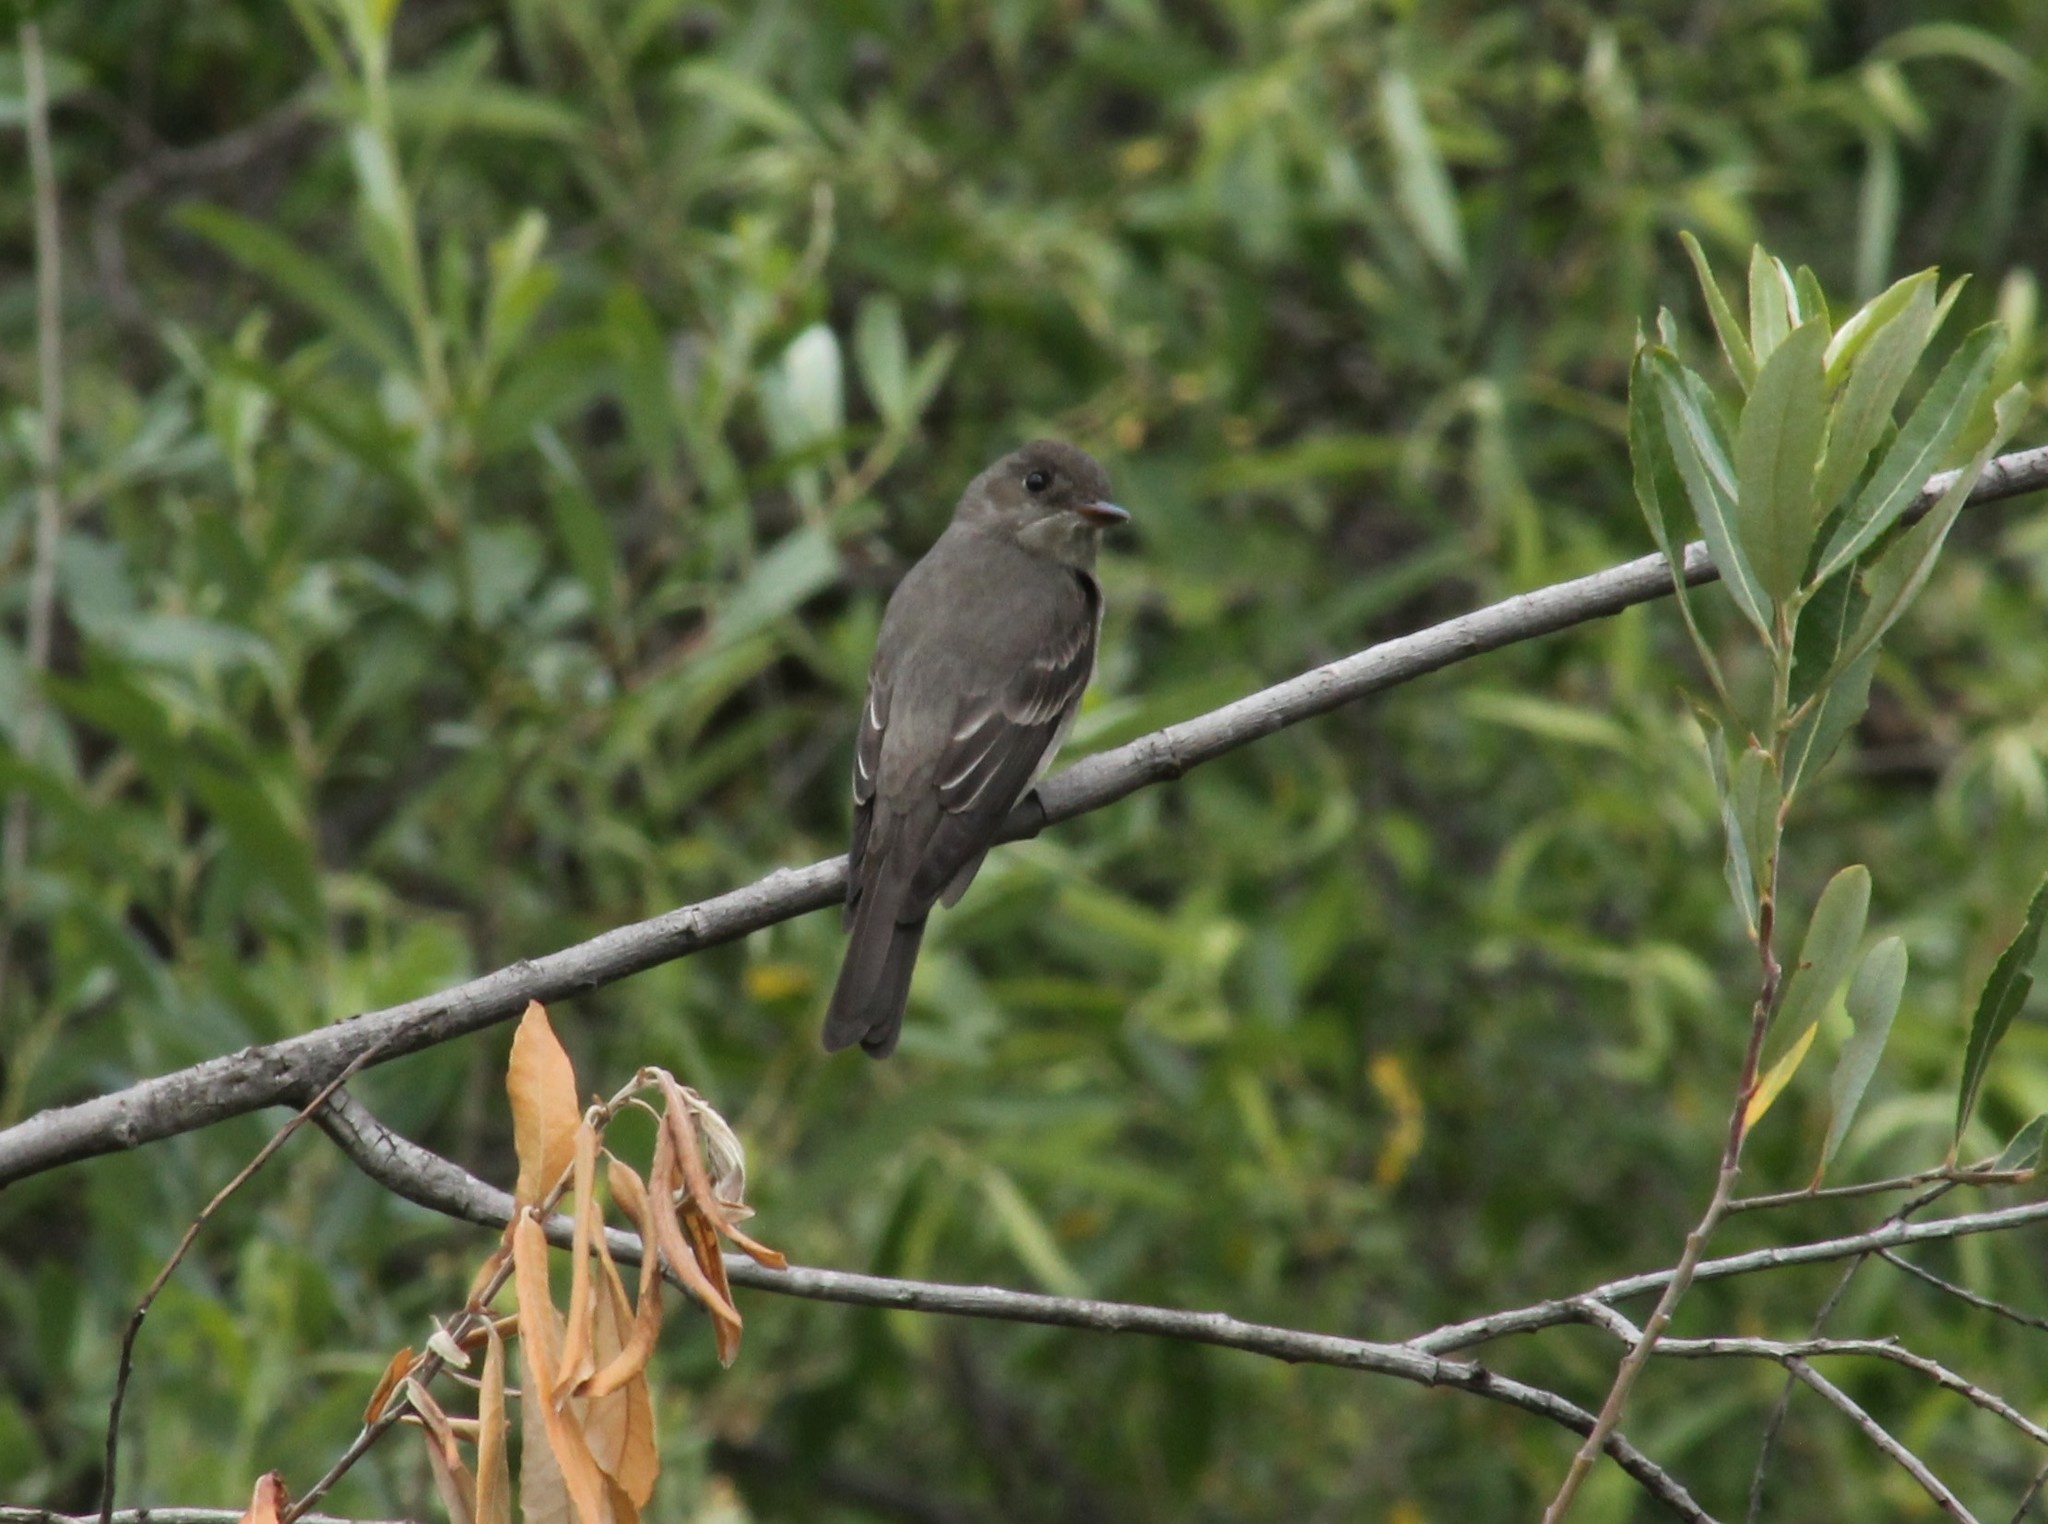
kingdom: Animalia
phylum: Chordata
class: Aves
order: Passeriformes
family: Tyrannidae
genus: Contopus
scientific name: Contopus sordidulus
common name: Western wood-pewee
